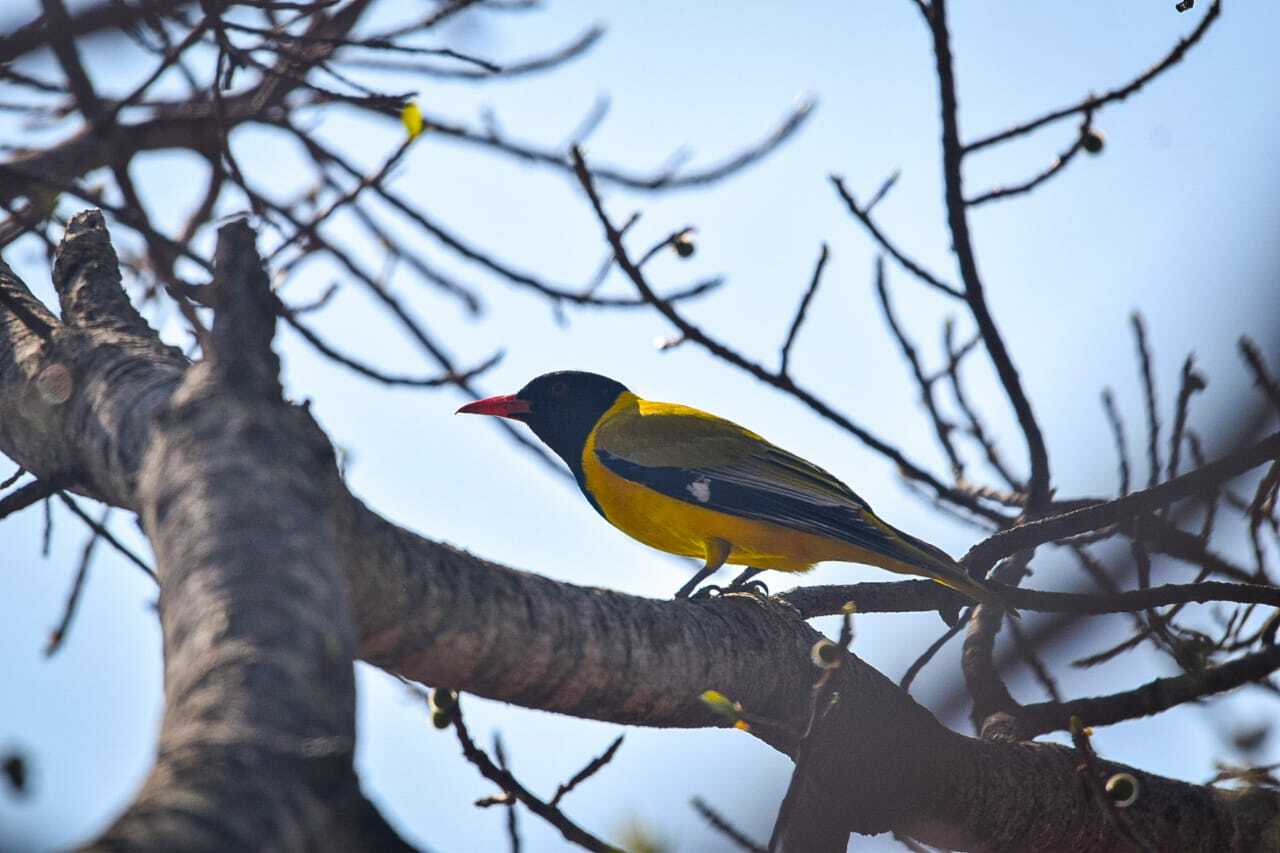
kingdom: Animalia
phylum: Chordata
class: Aves
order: Passeriformes
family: Oriolidae
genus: Oriolus
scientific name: Oriolus larvatus
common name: Black-headed oriole
